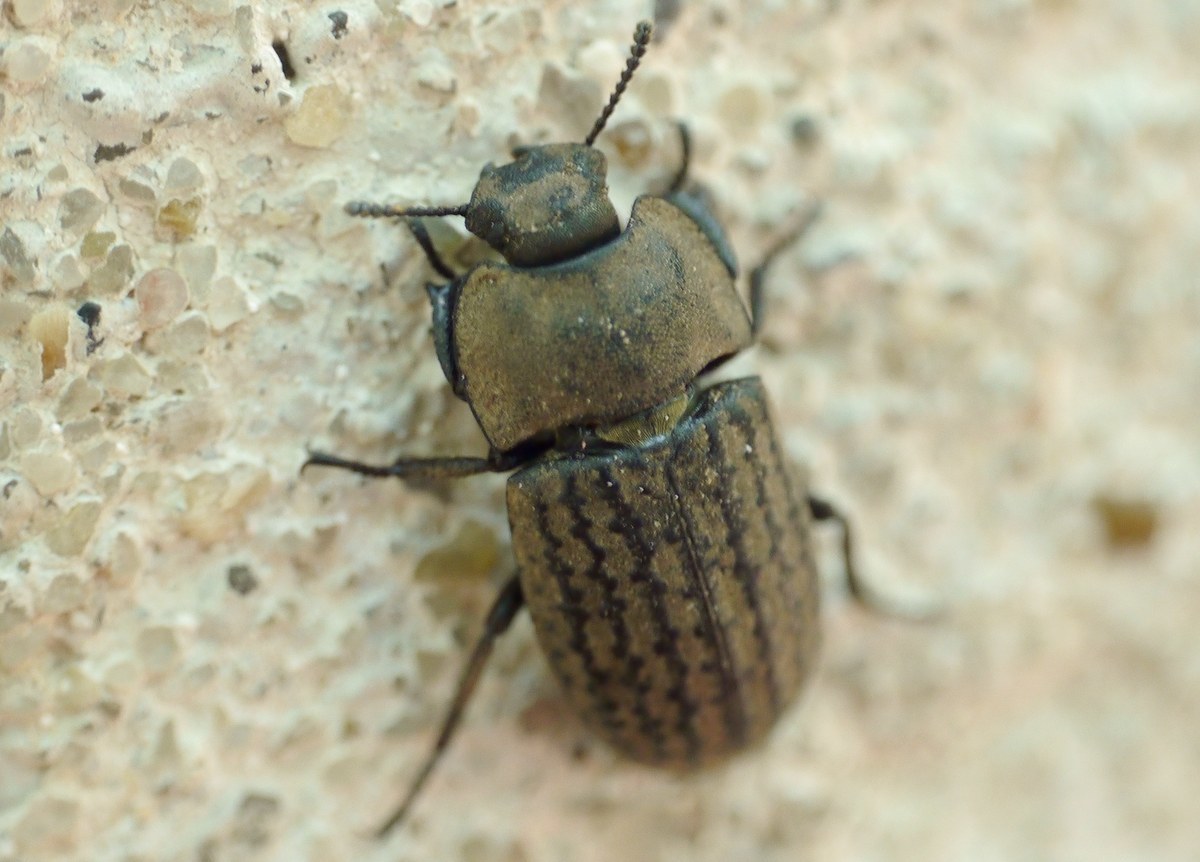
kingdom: Animalia
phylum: Arthropoda
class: Insecta
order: Coleoptera
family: Tenebrionidae
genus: Opatrum
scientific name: Opatrum sabulosum
